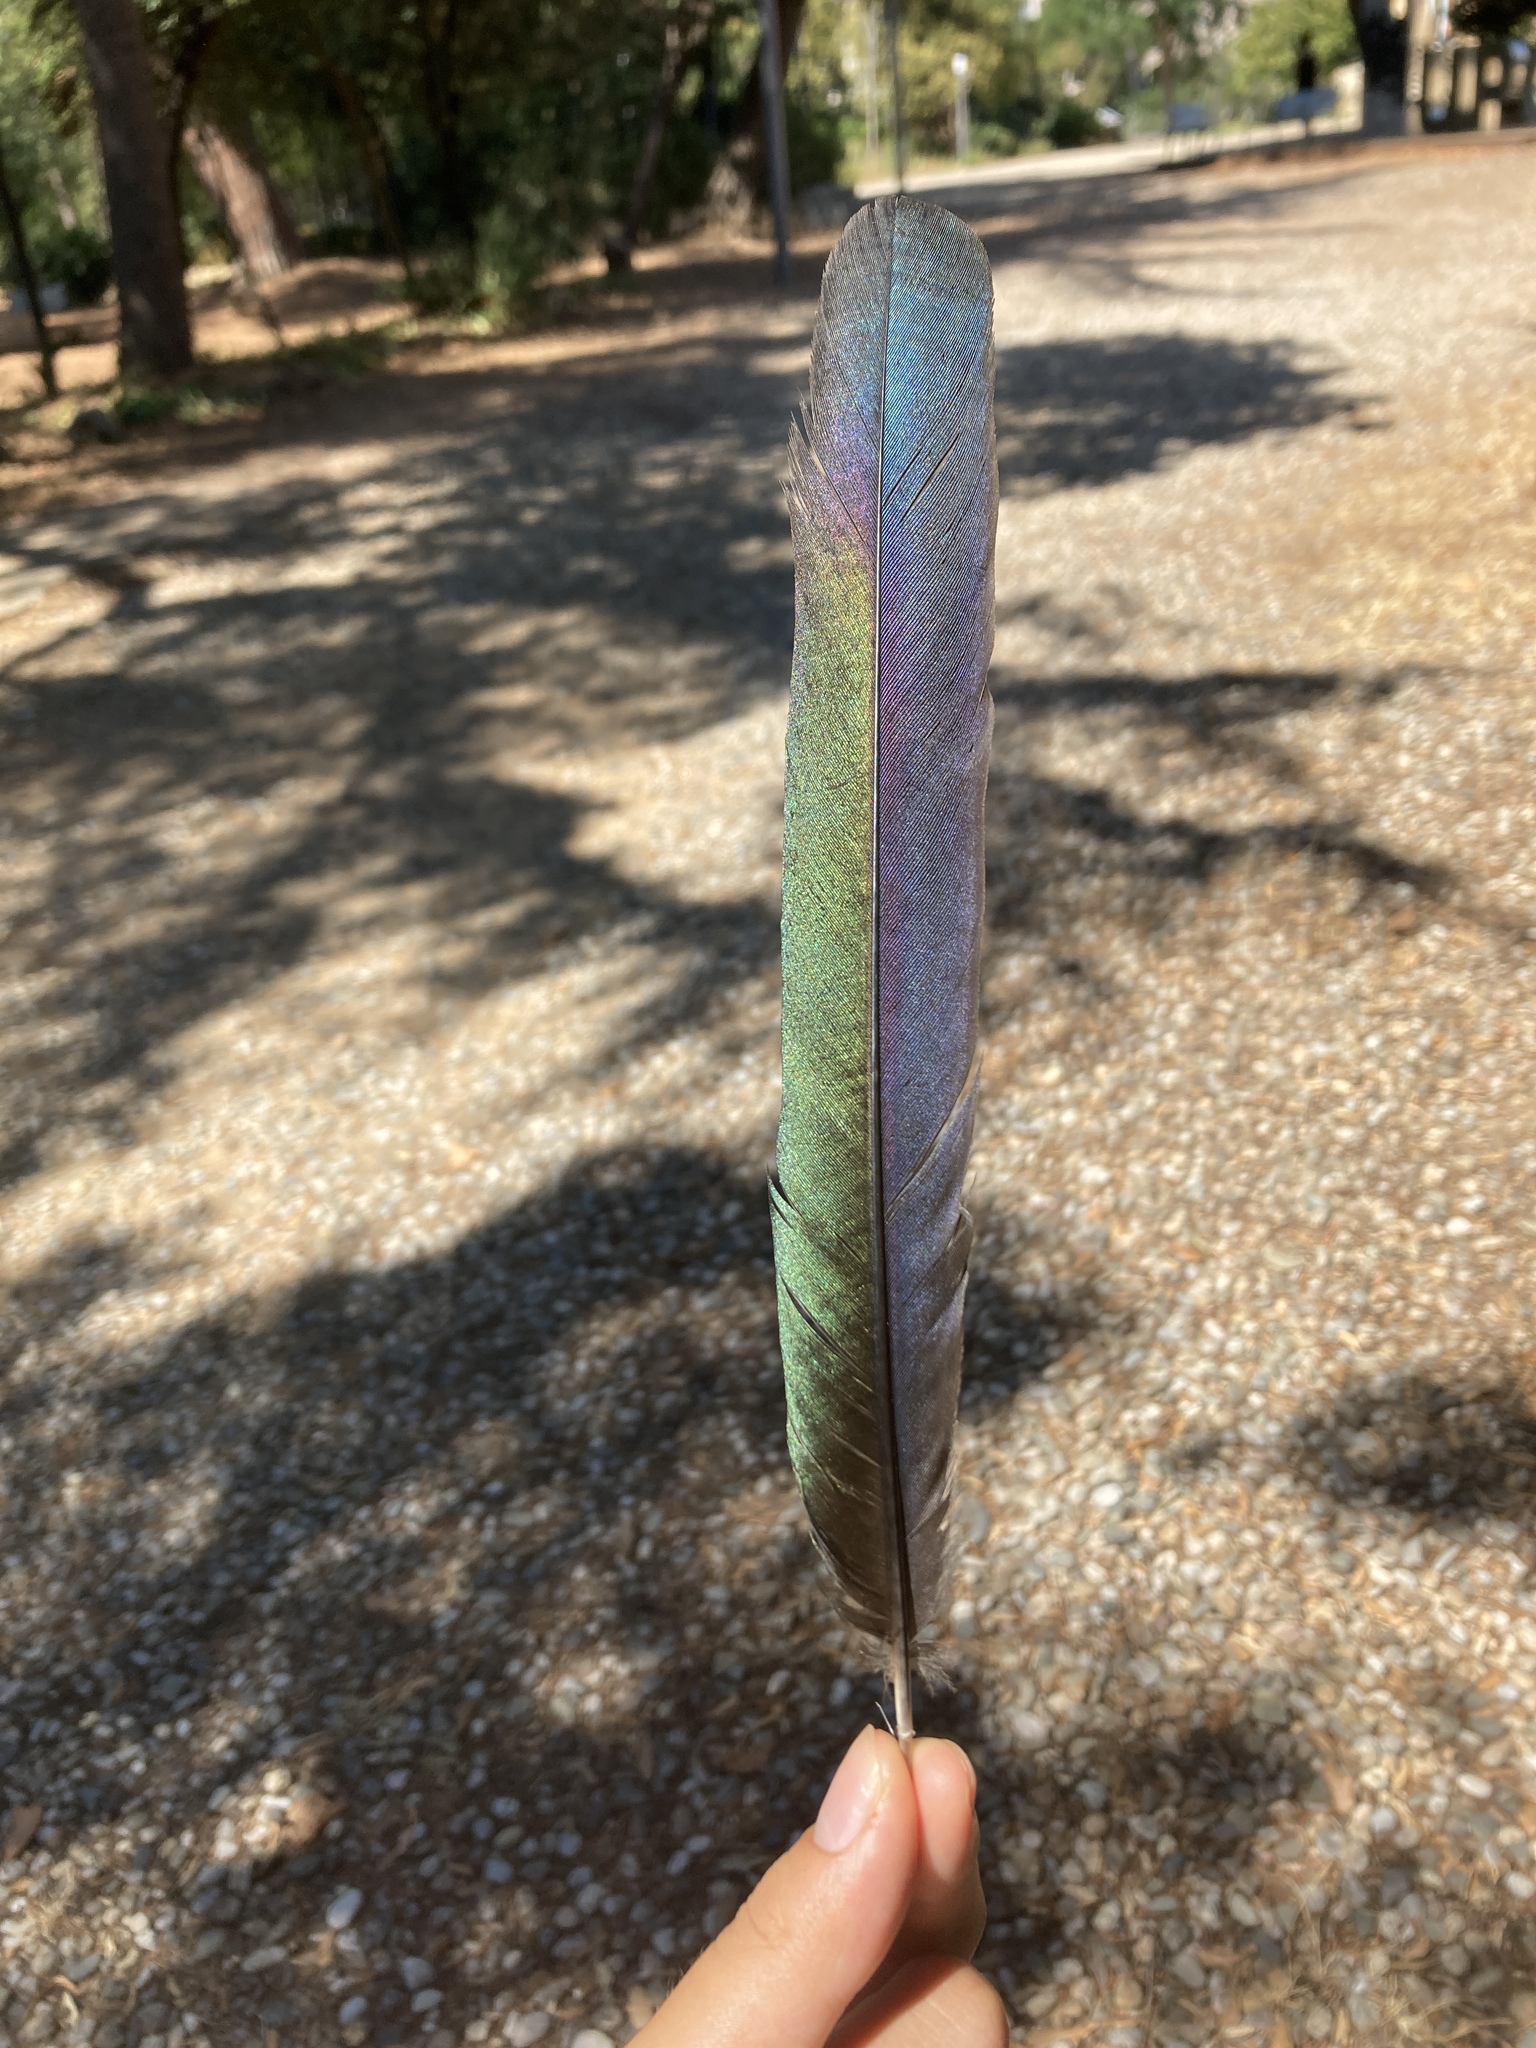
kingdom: Animalia
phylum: Chordata
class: Aves
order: Passeriformes
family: Corvidae
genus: Pica
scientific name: Pica pica
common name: Eurasian magpie
